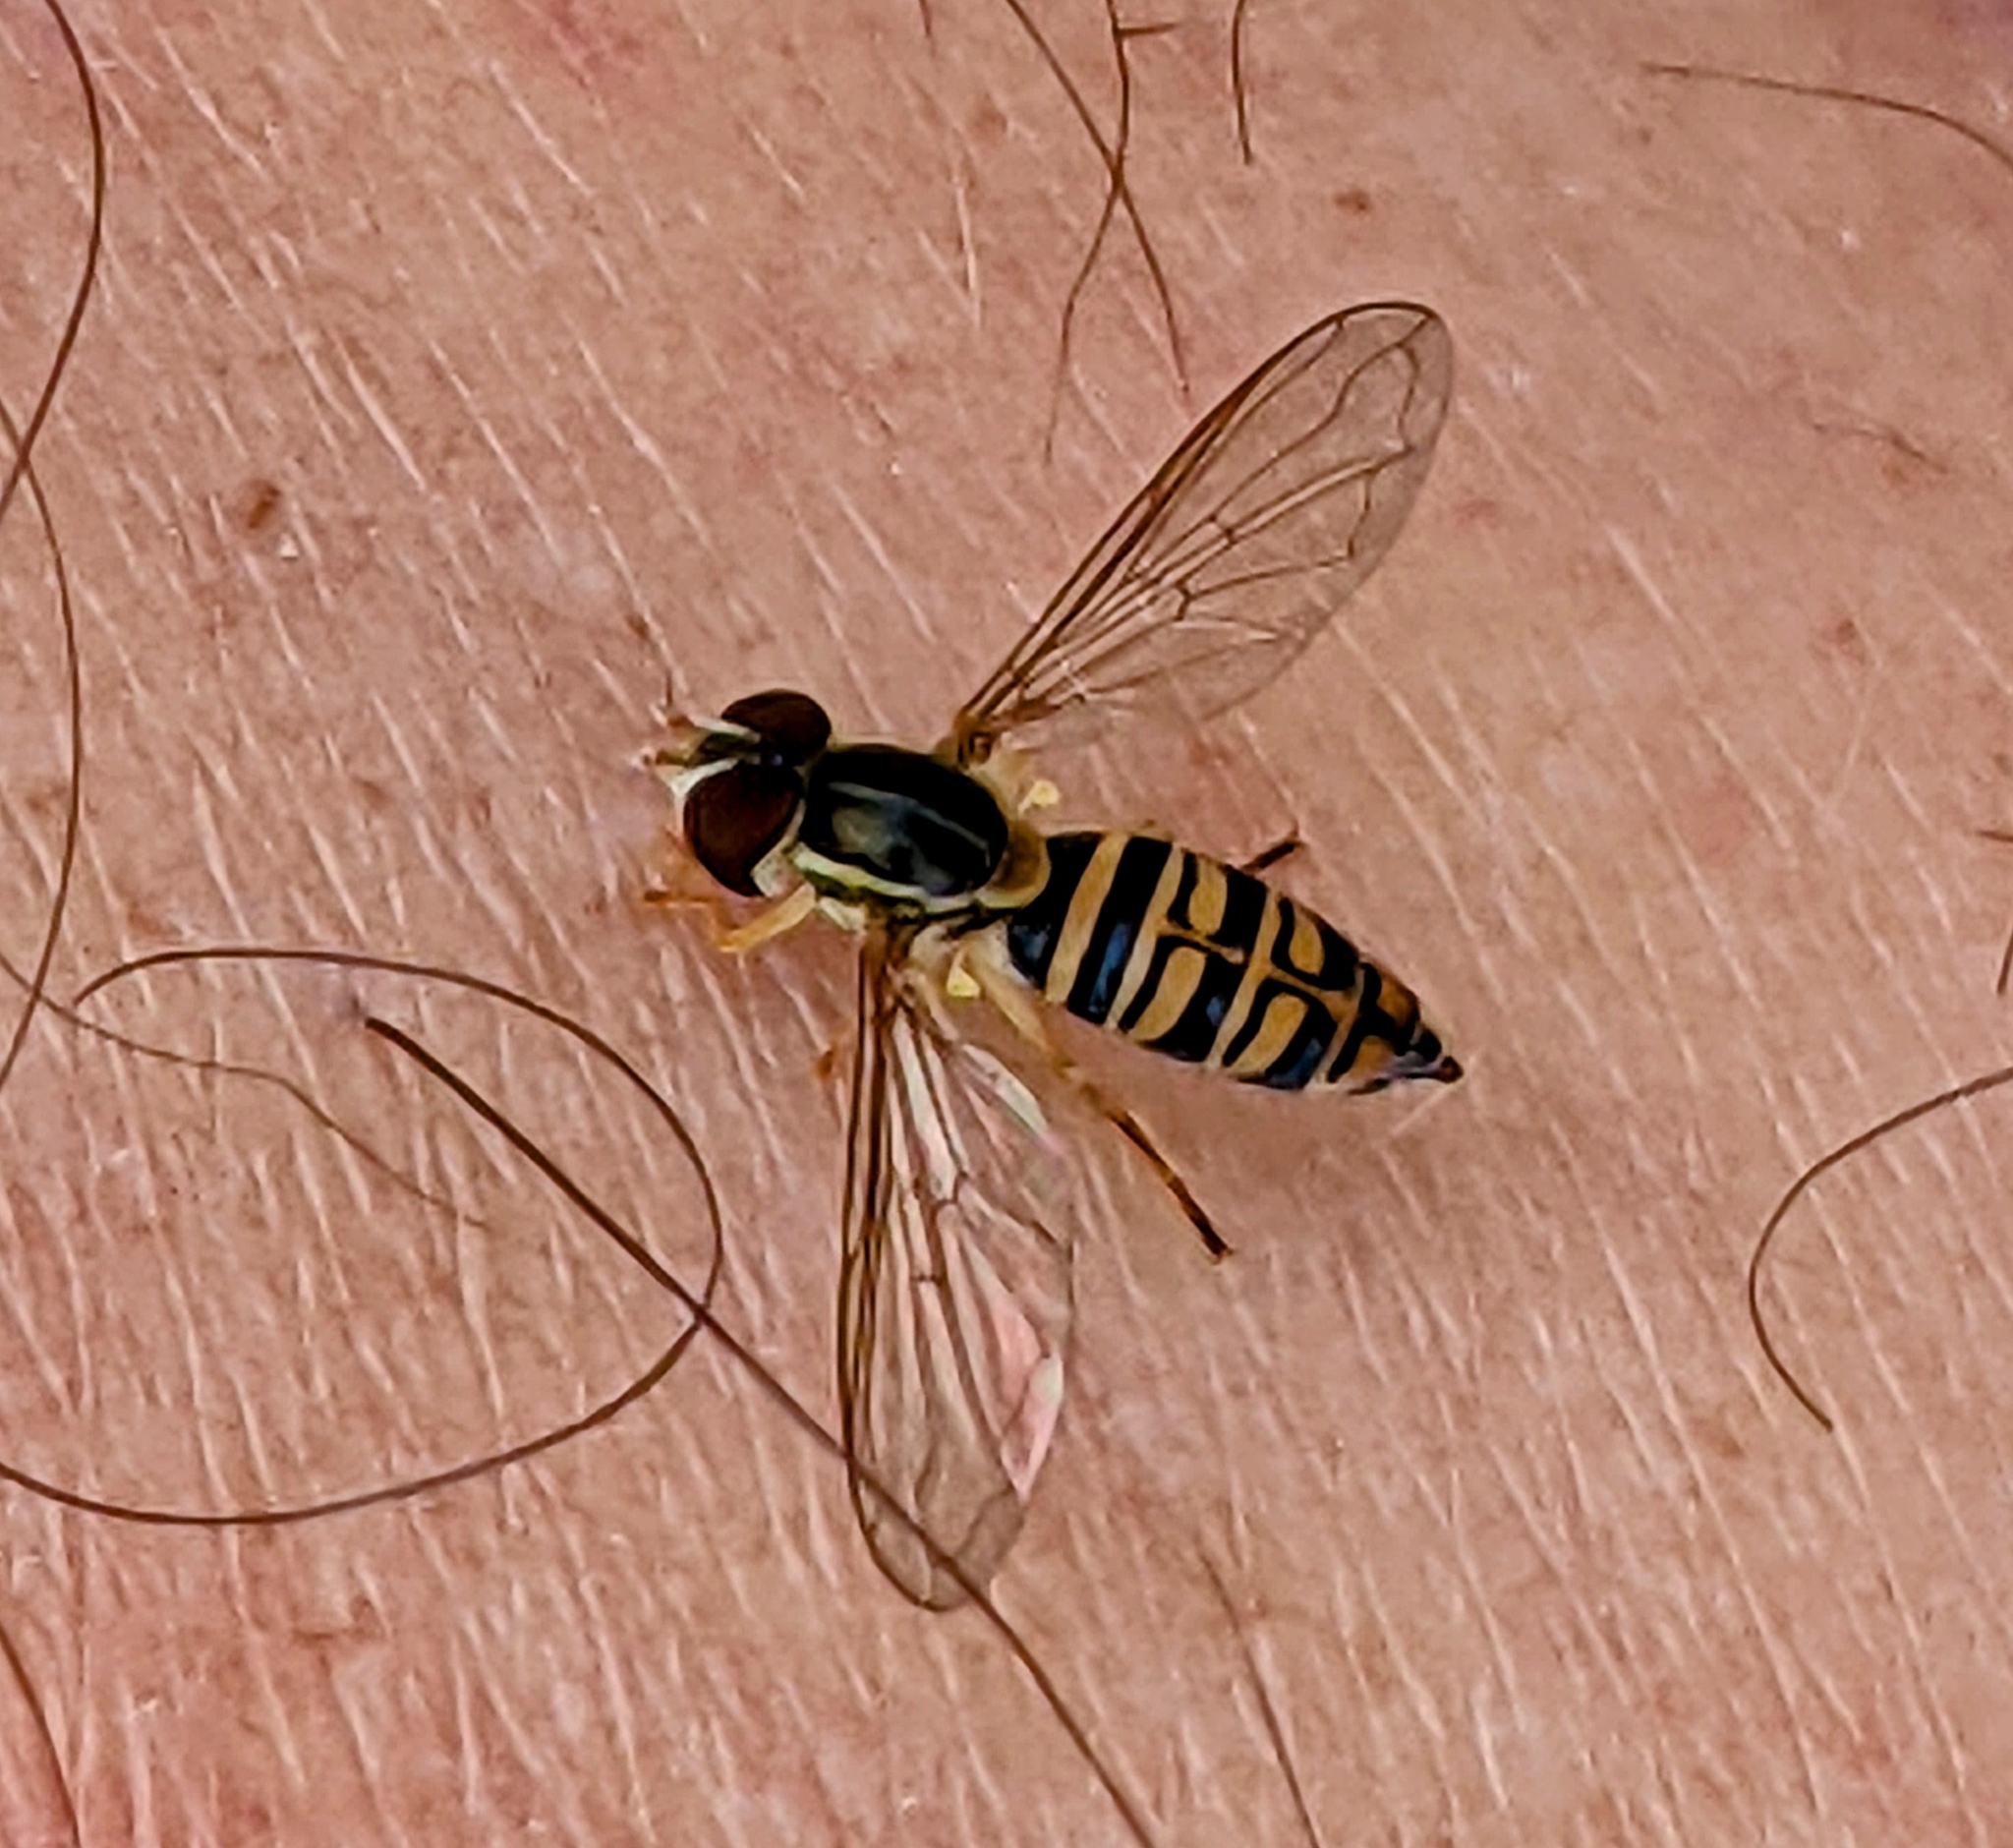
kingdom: Animalia
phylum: Arthropoda
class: Insecta
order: Diptera
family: Syrphidae
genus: Toxomerus
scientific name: Toxomerus politus
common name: Maize calligrapher
